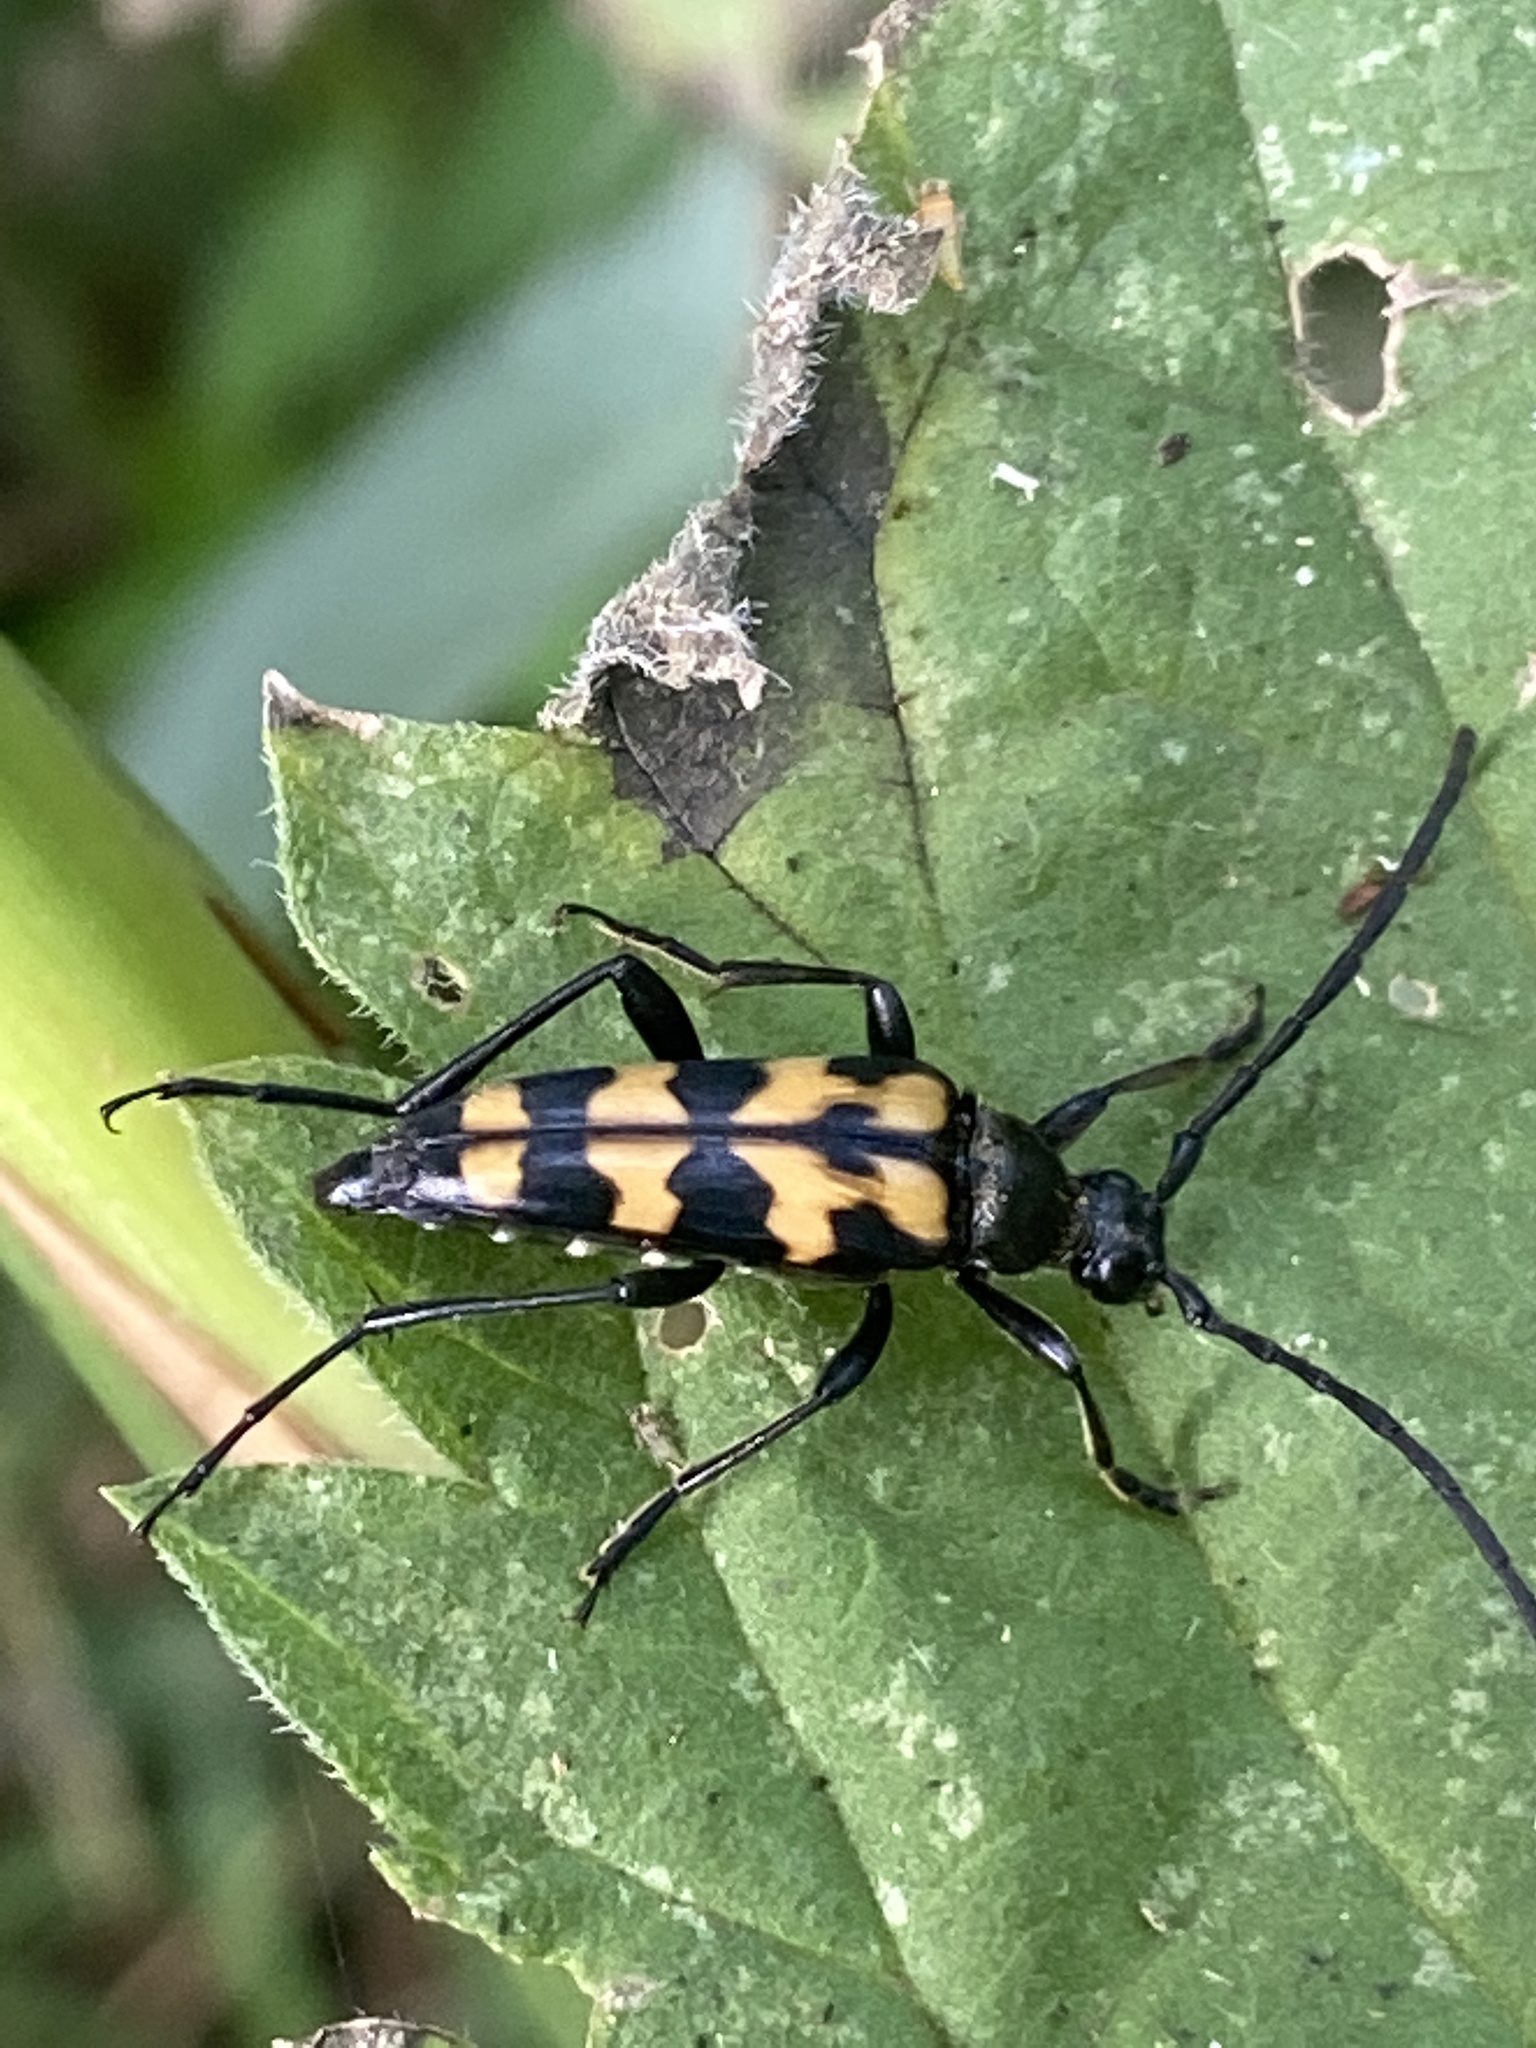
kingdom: Animalia
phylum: Arthropoda
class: Insecta
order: Coleoptera
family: Cerambycidae
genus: Leptura
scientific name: Leptura quadrifasciata
